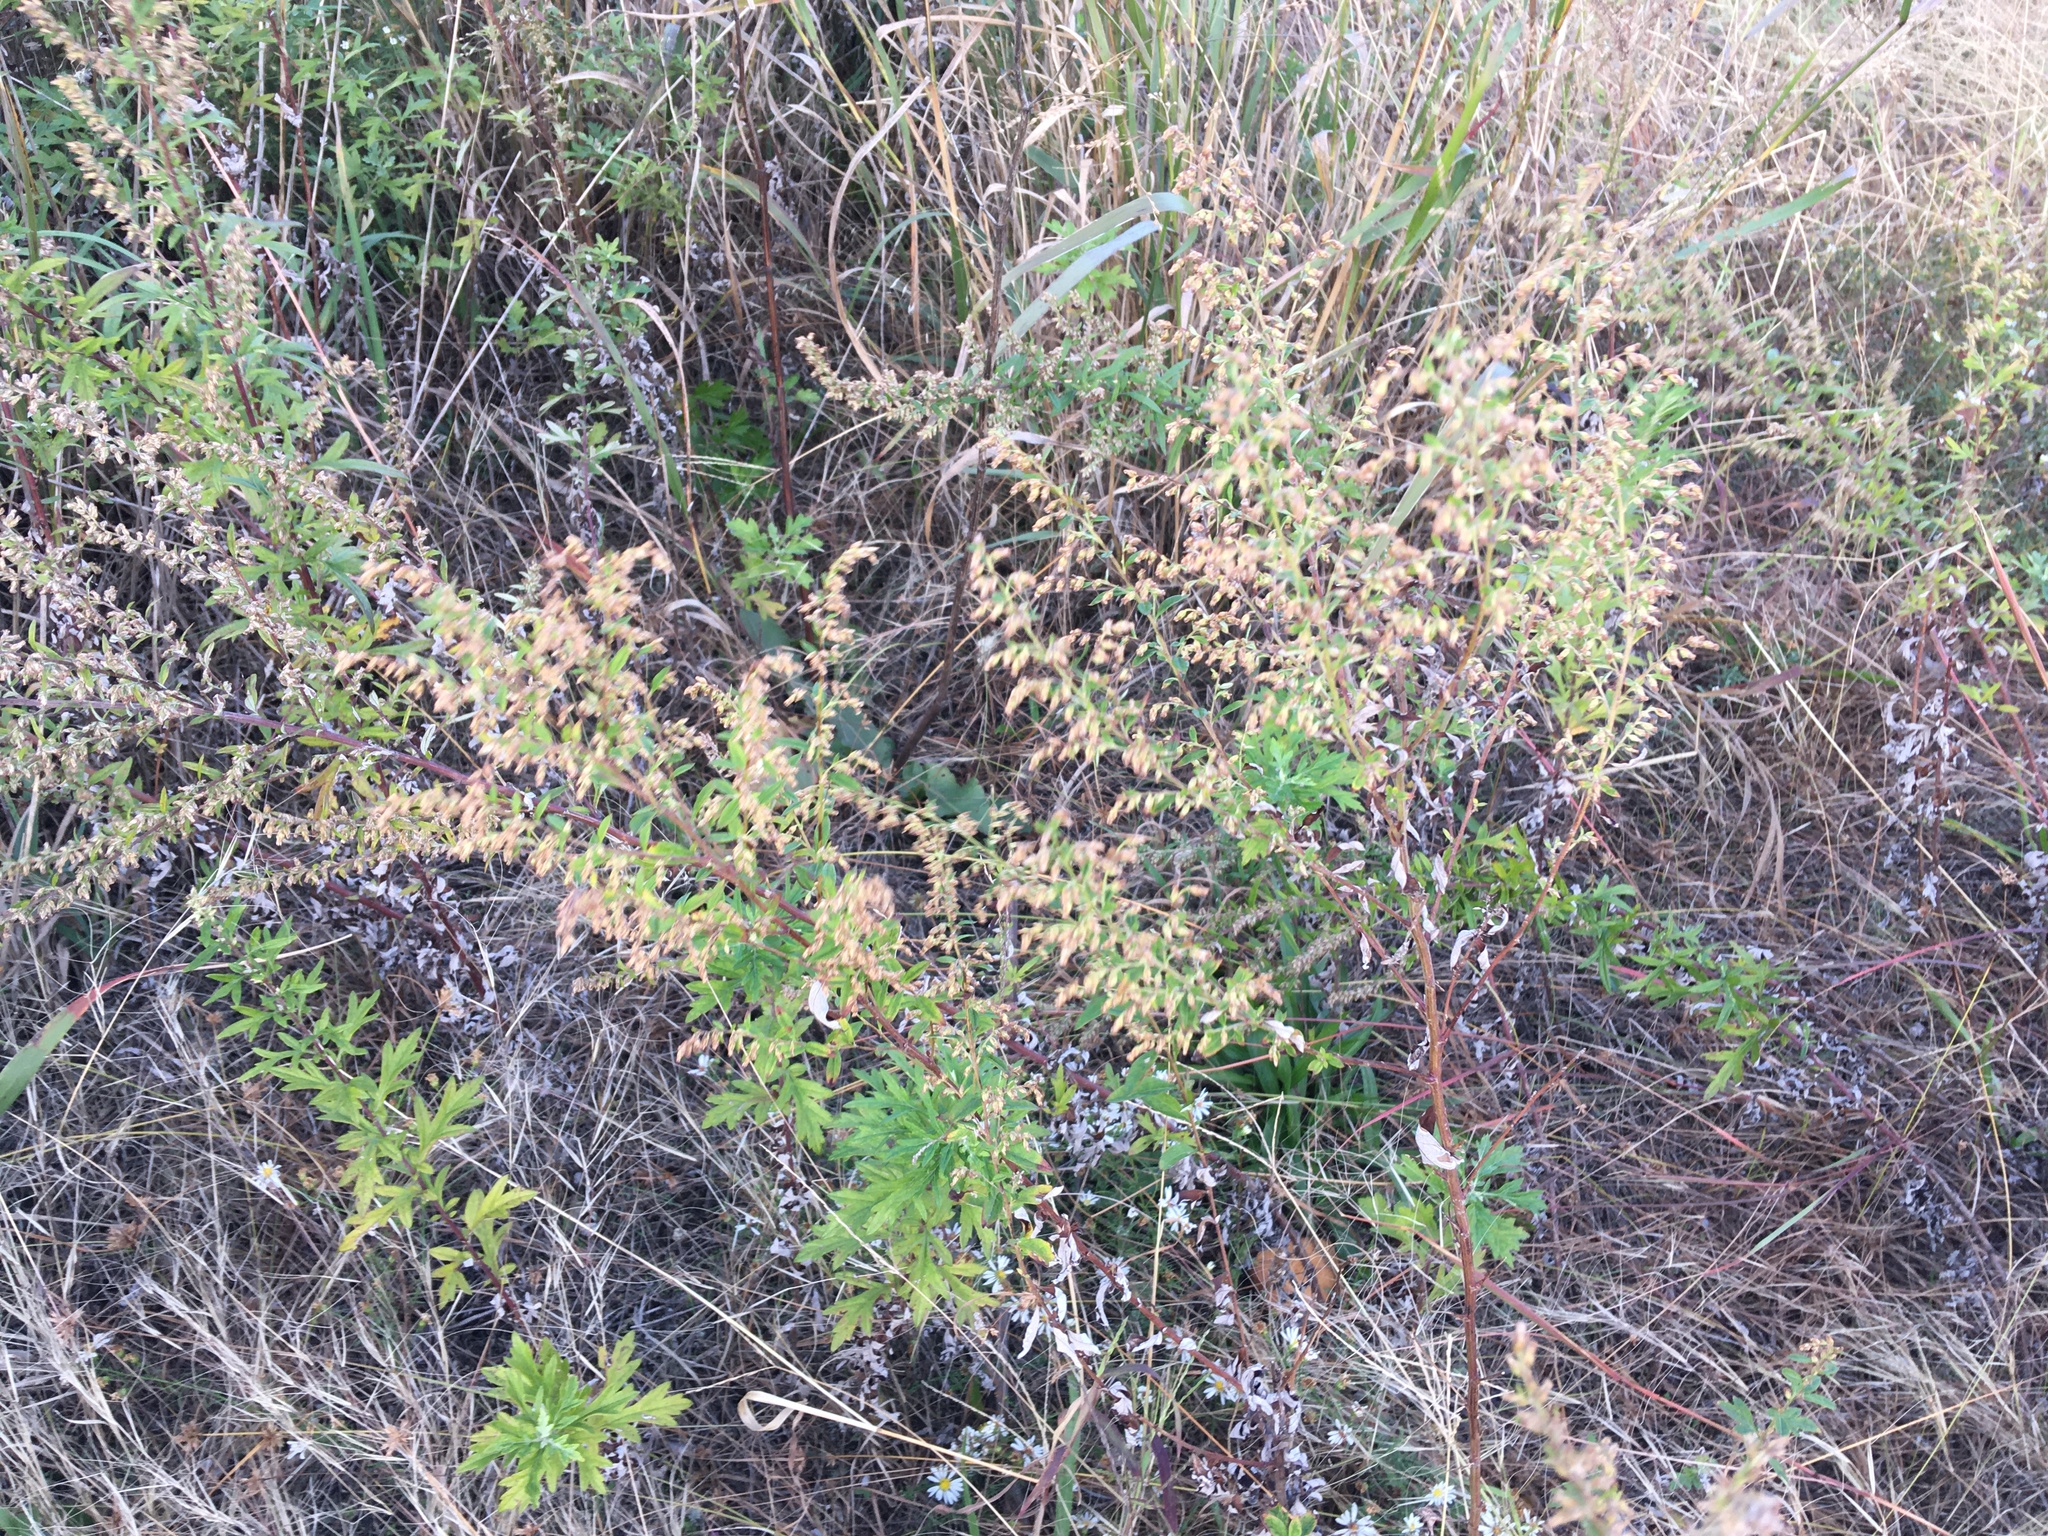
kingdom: Plantae
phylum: Tracheophyta
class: Magnoliopsida
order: Asterales
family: Asteraceae
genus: Artemisia
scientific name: Artemisia vulgaris
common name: Mugwort
